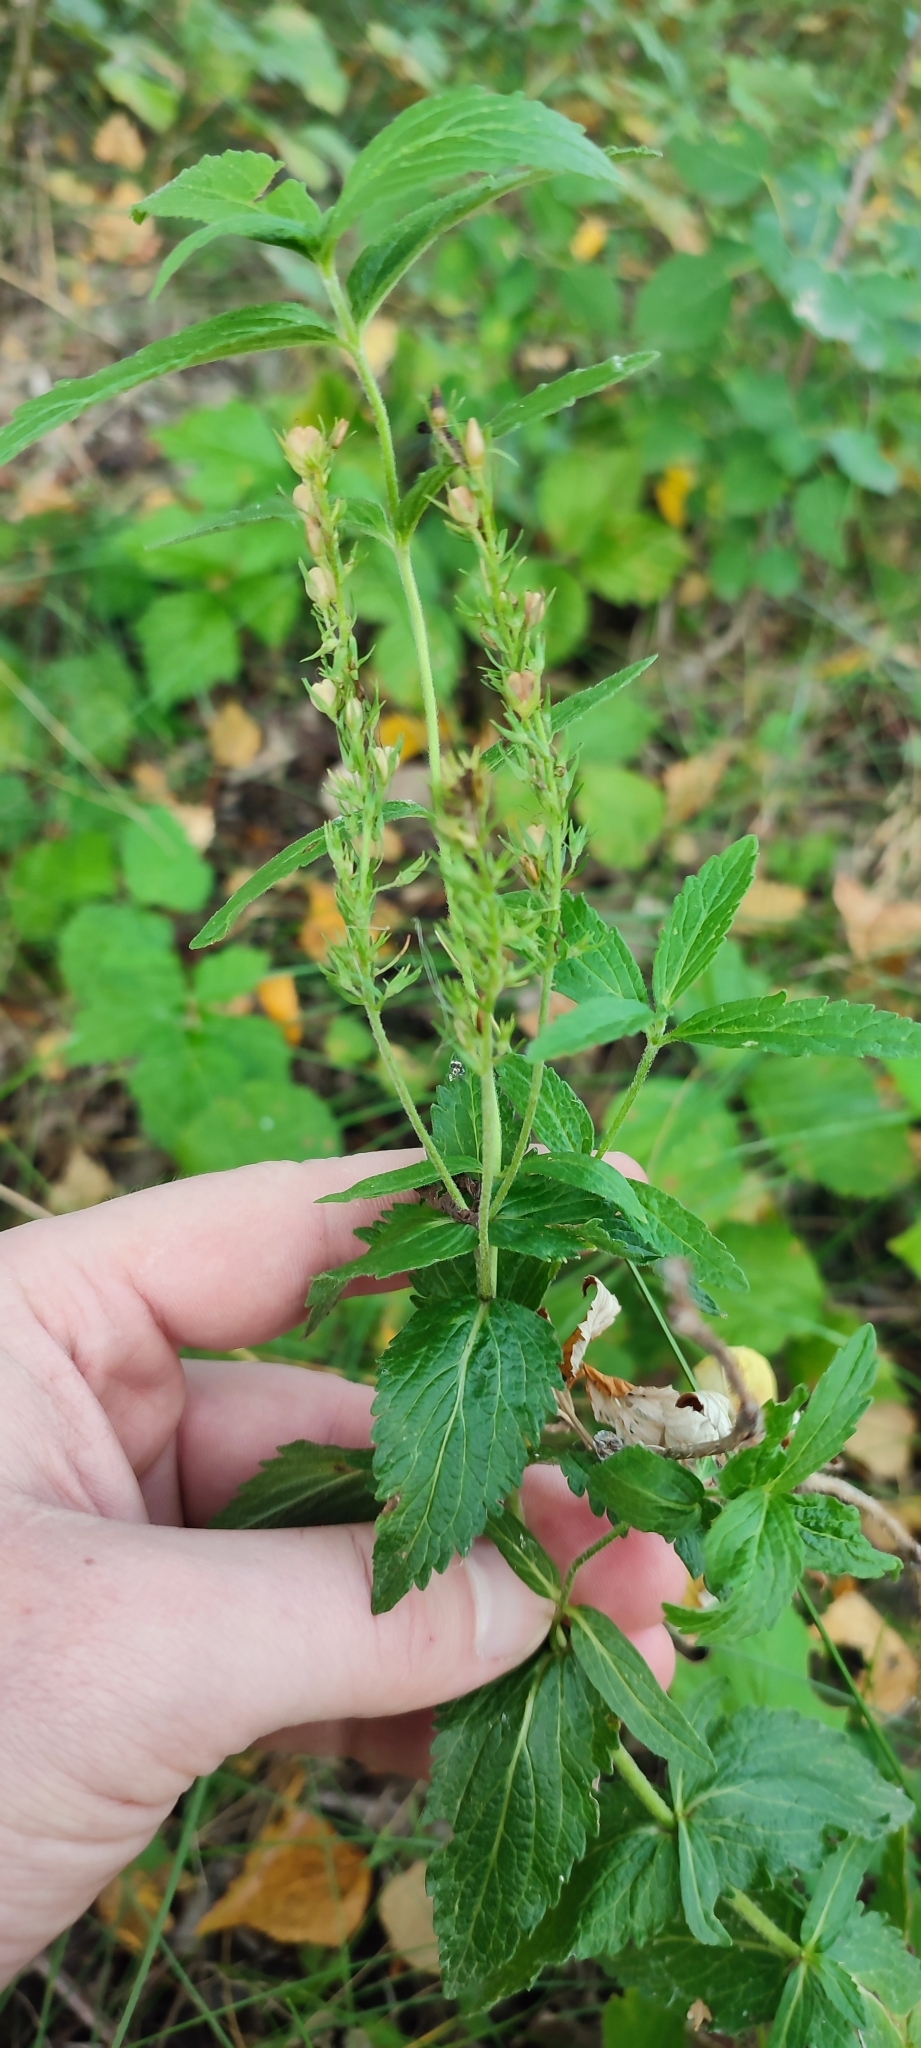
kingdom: Plantae
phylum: Tracheophyta
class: Magnoliopsida
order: Lamiales
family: Plantaginaceae
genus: Veronica
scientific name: Veronica teucrium
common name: Large speedwell
